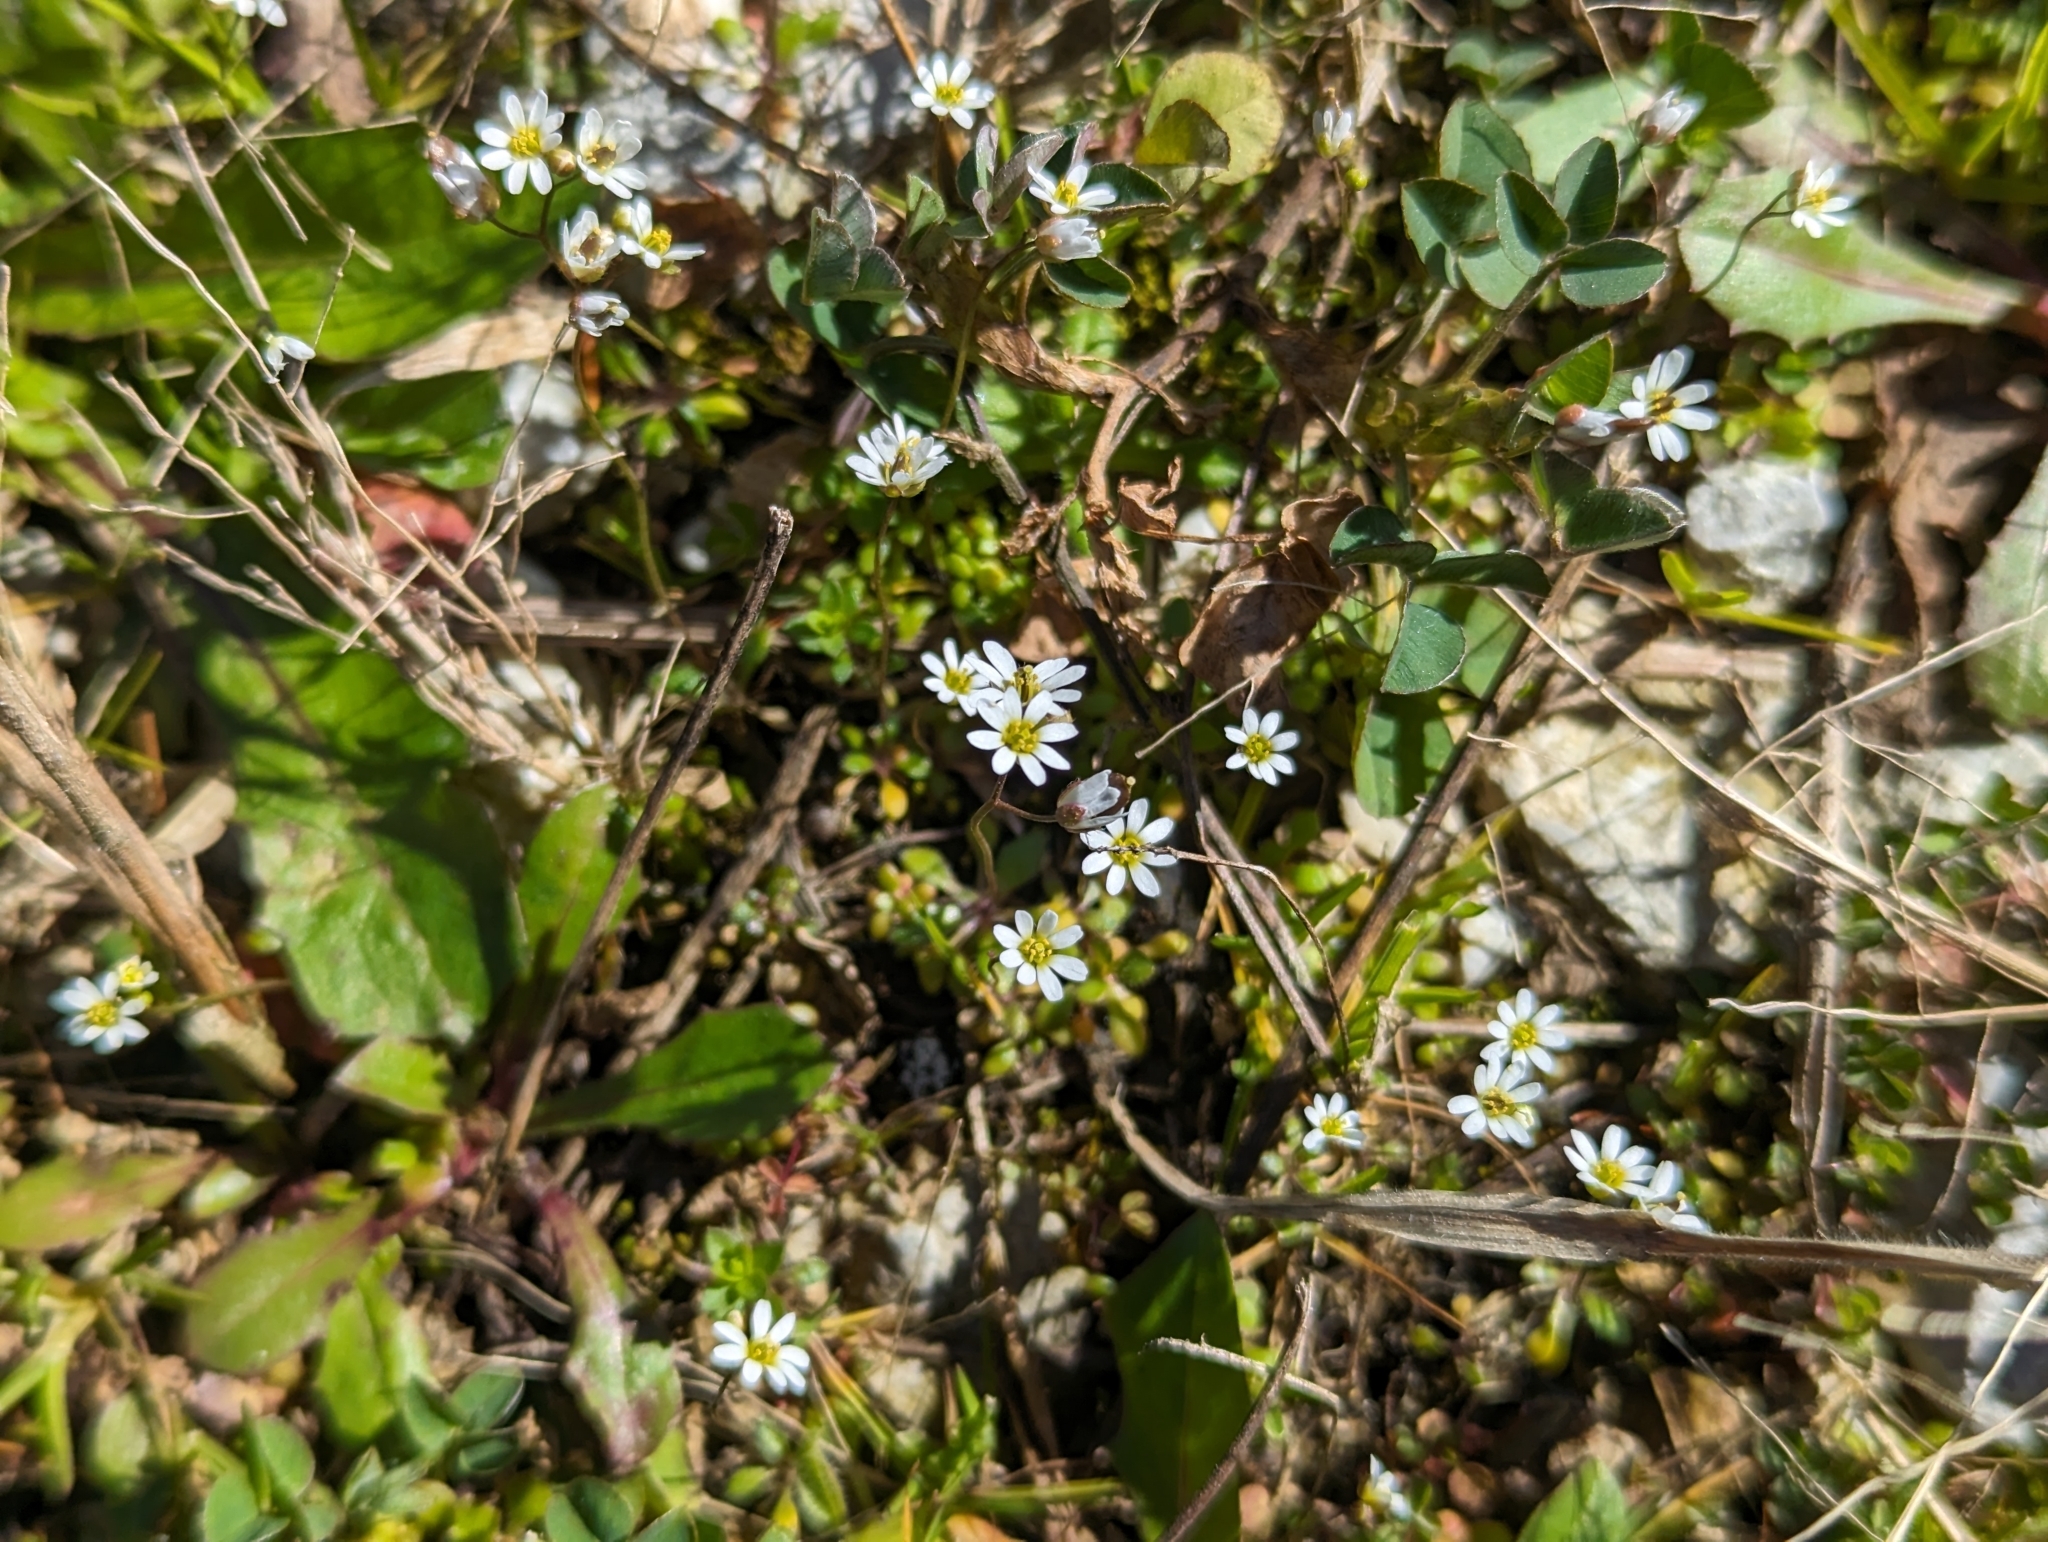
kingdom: Plantae
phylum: Tracheophyta
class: Magnoliopsida
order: Brassicales
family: Brassicaceae
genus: Draba
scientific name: Draba verna
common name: Spring draba
